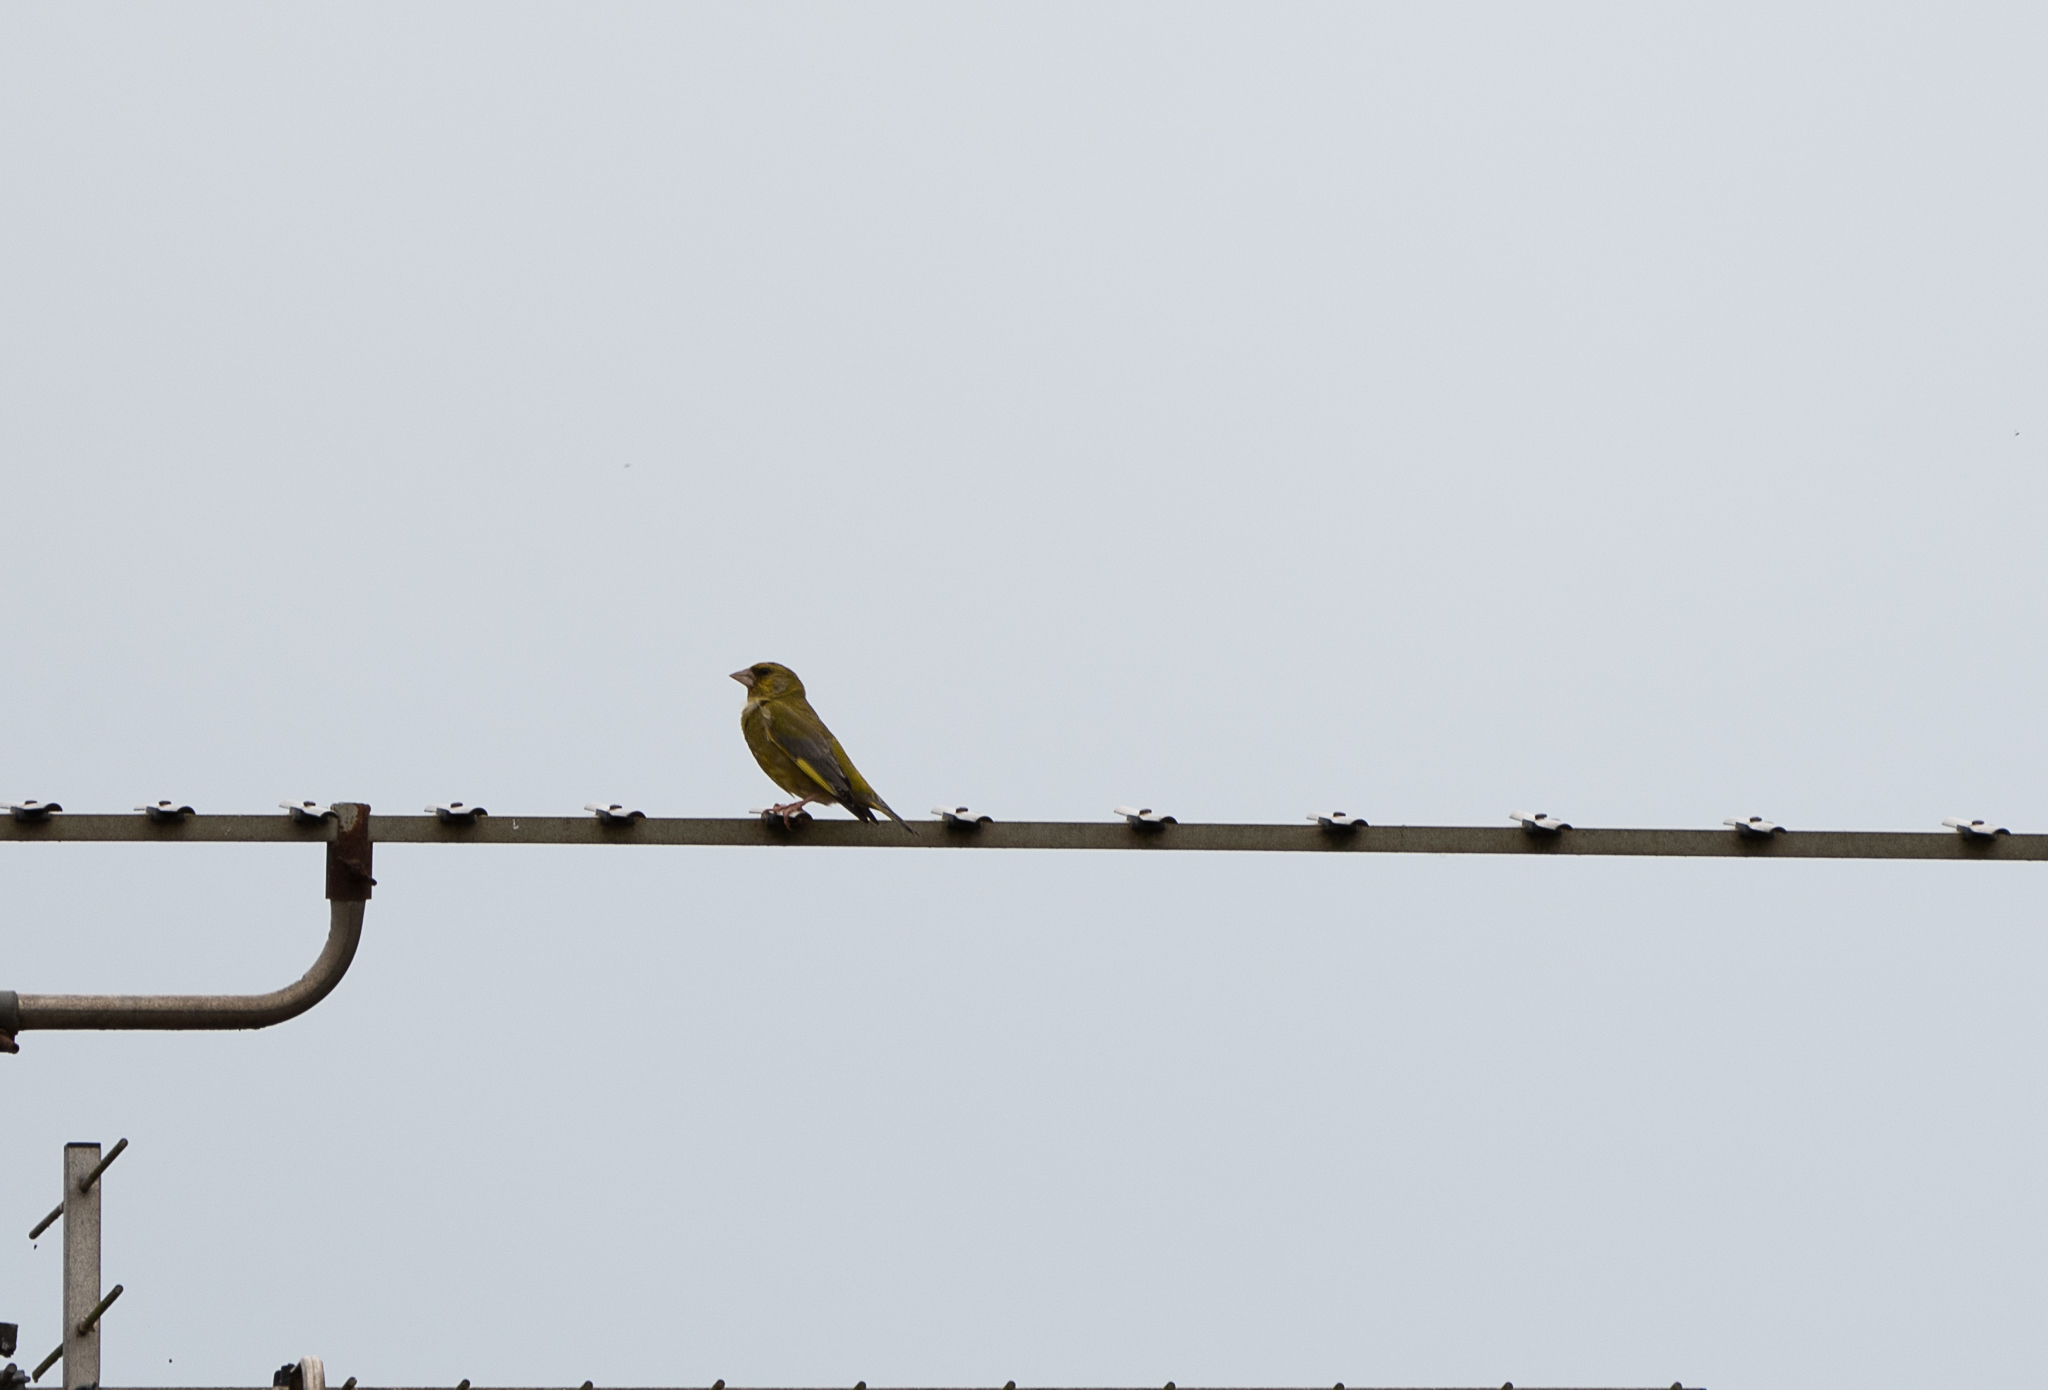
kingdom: Plantae
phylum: Tracheophyta
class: Liliopsida
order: Poales
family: Poaceae
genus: Chloris
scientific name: Chloris chloris
